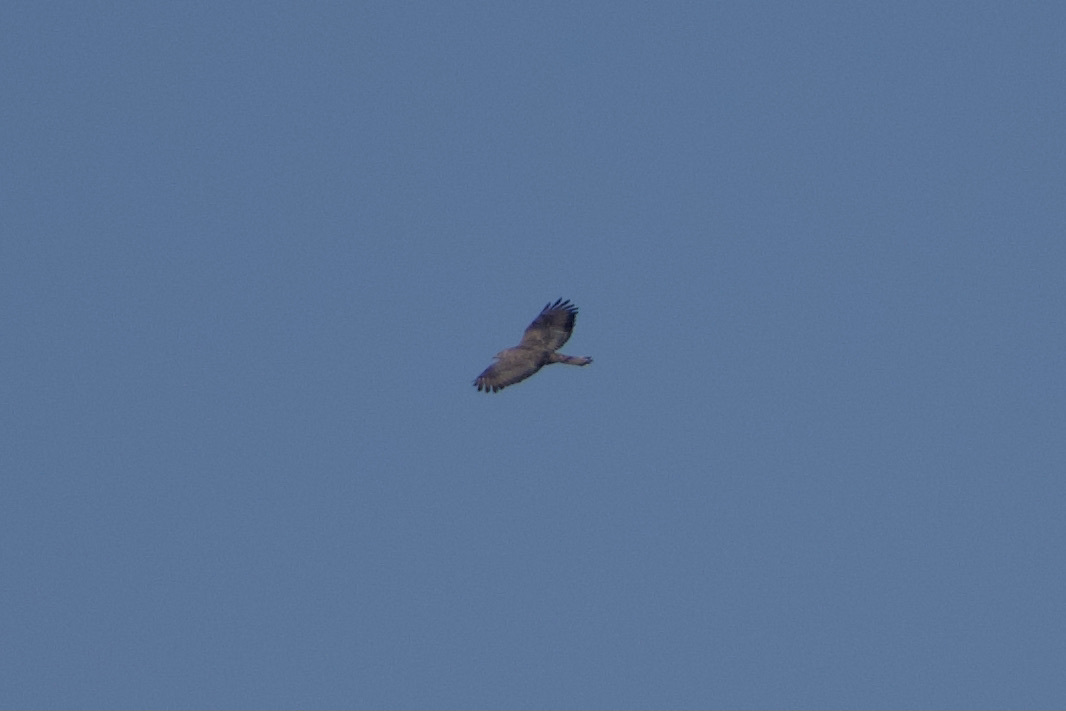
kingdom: Animalia
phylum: Chordata
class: Aves
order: Accipitriformes
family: Accipitridae
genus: Pernis
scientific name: Pernis apivorus
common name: European honey buzzard
